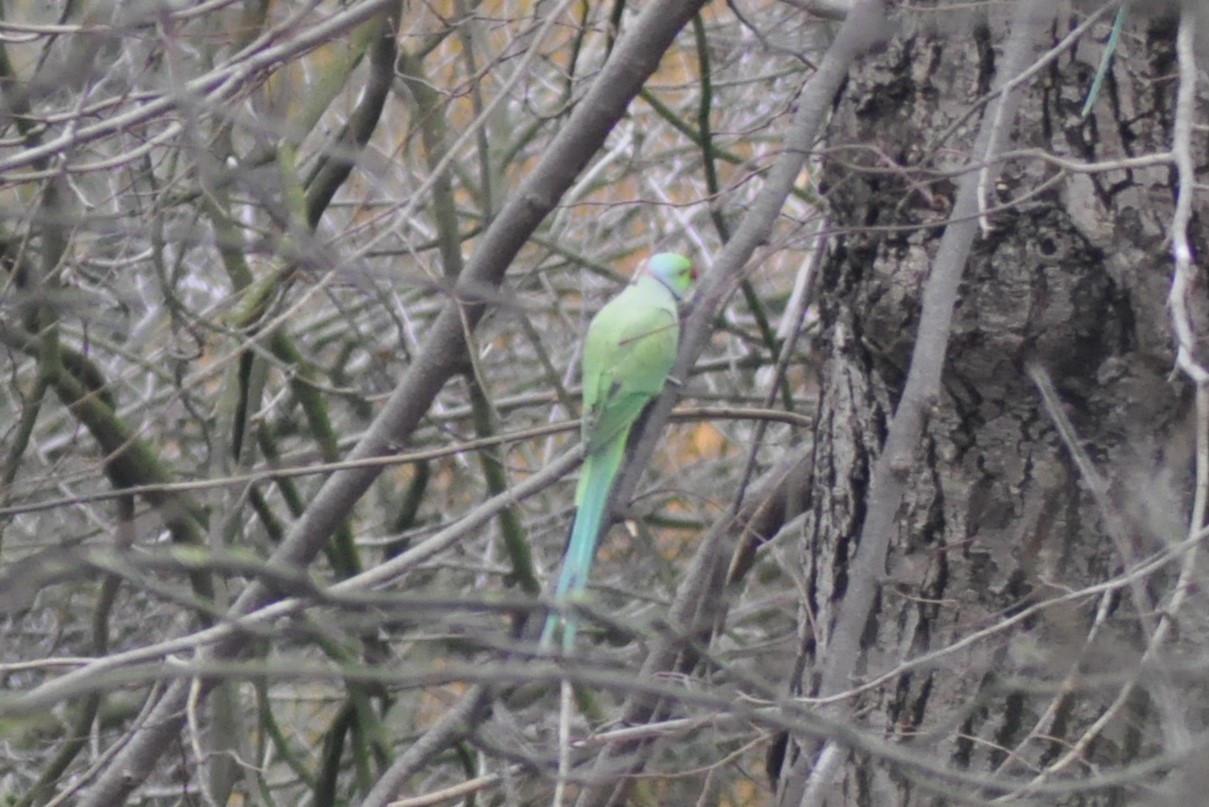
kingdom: Animalia
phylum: Chordata
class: Aves
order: Psittaciformes
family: Psittacidae
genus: Psittacula
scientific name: Psittacula krameri
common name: Rose-ringed parakeet
